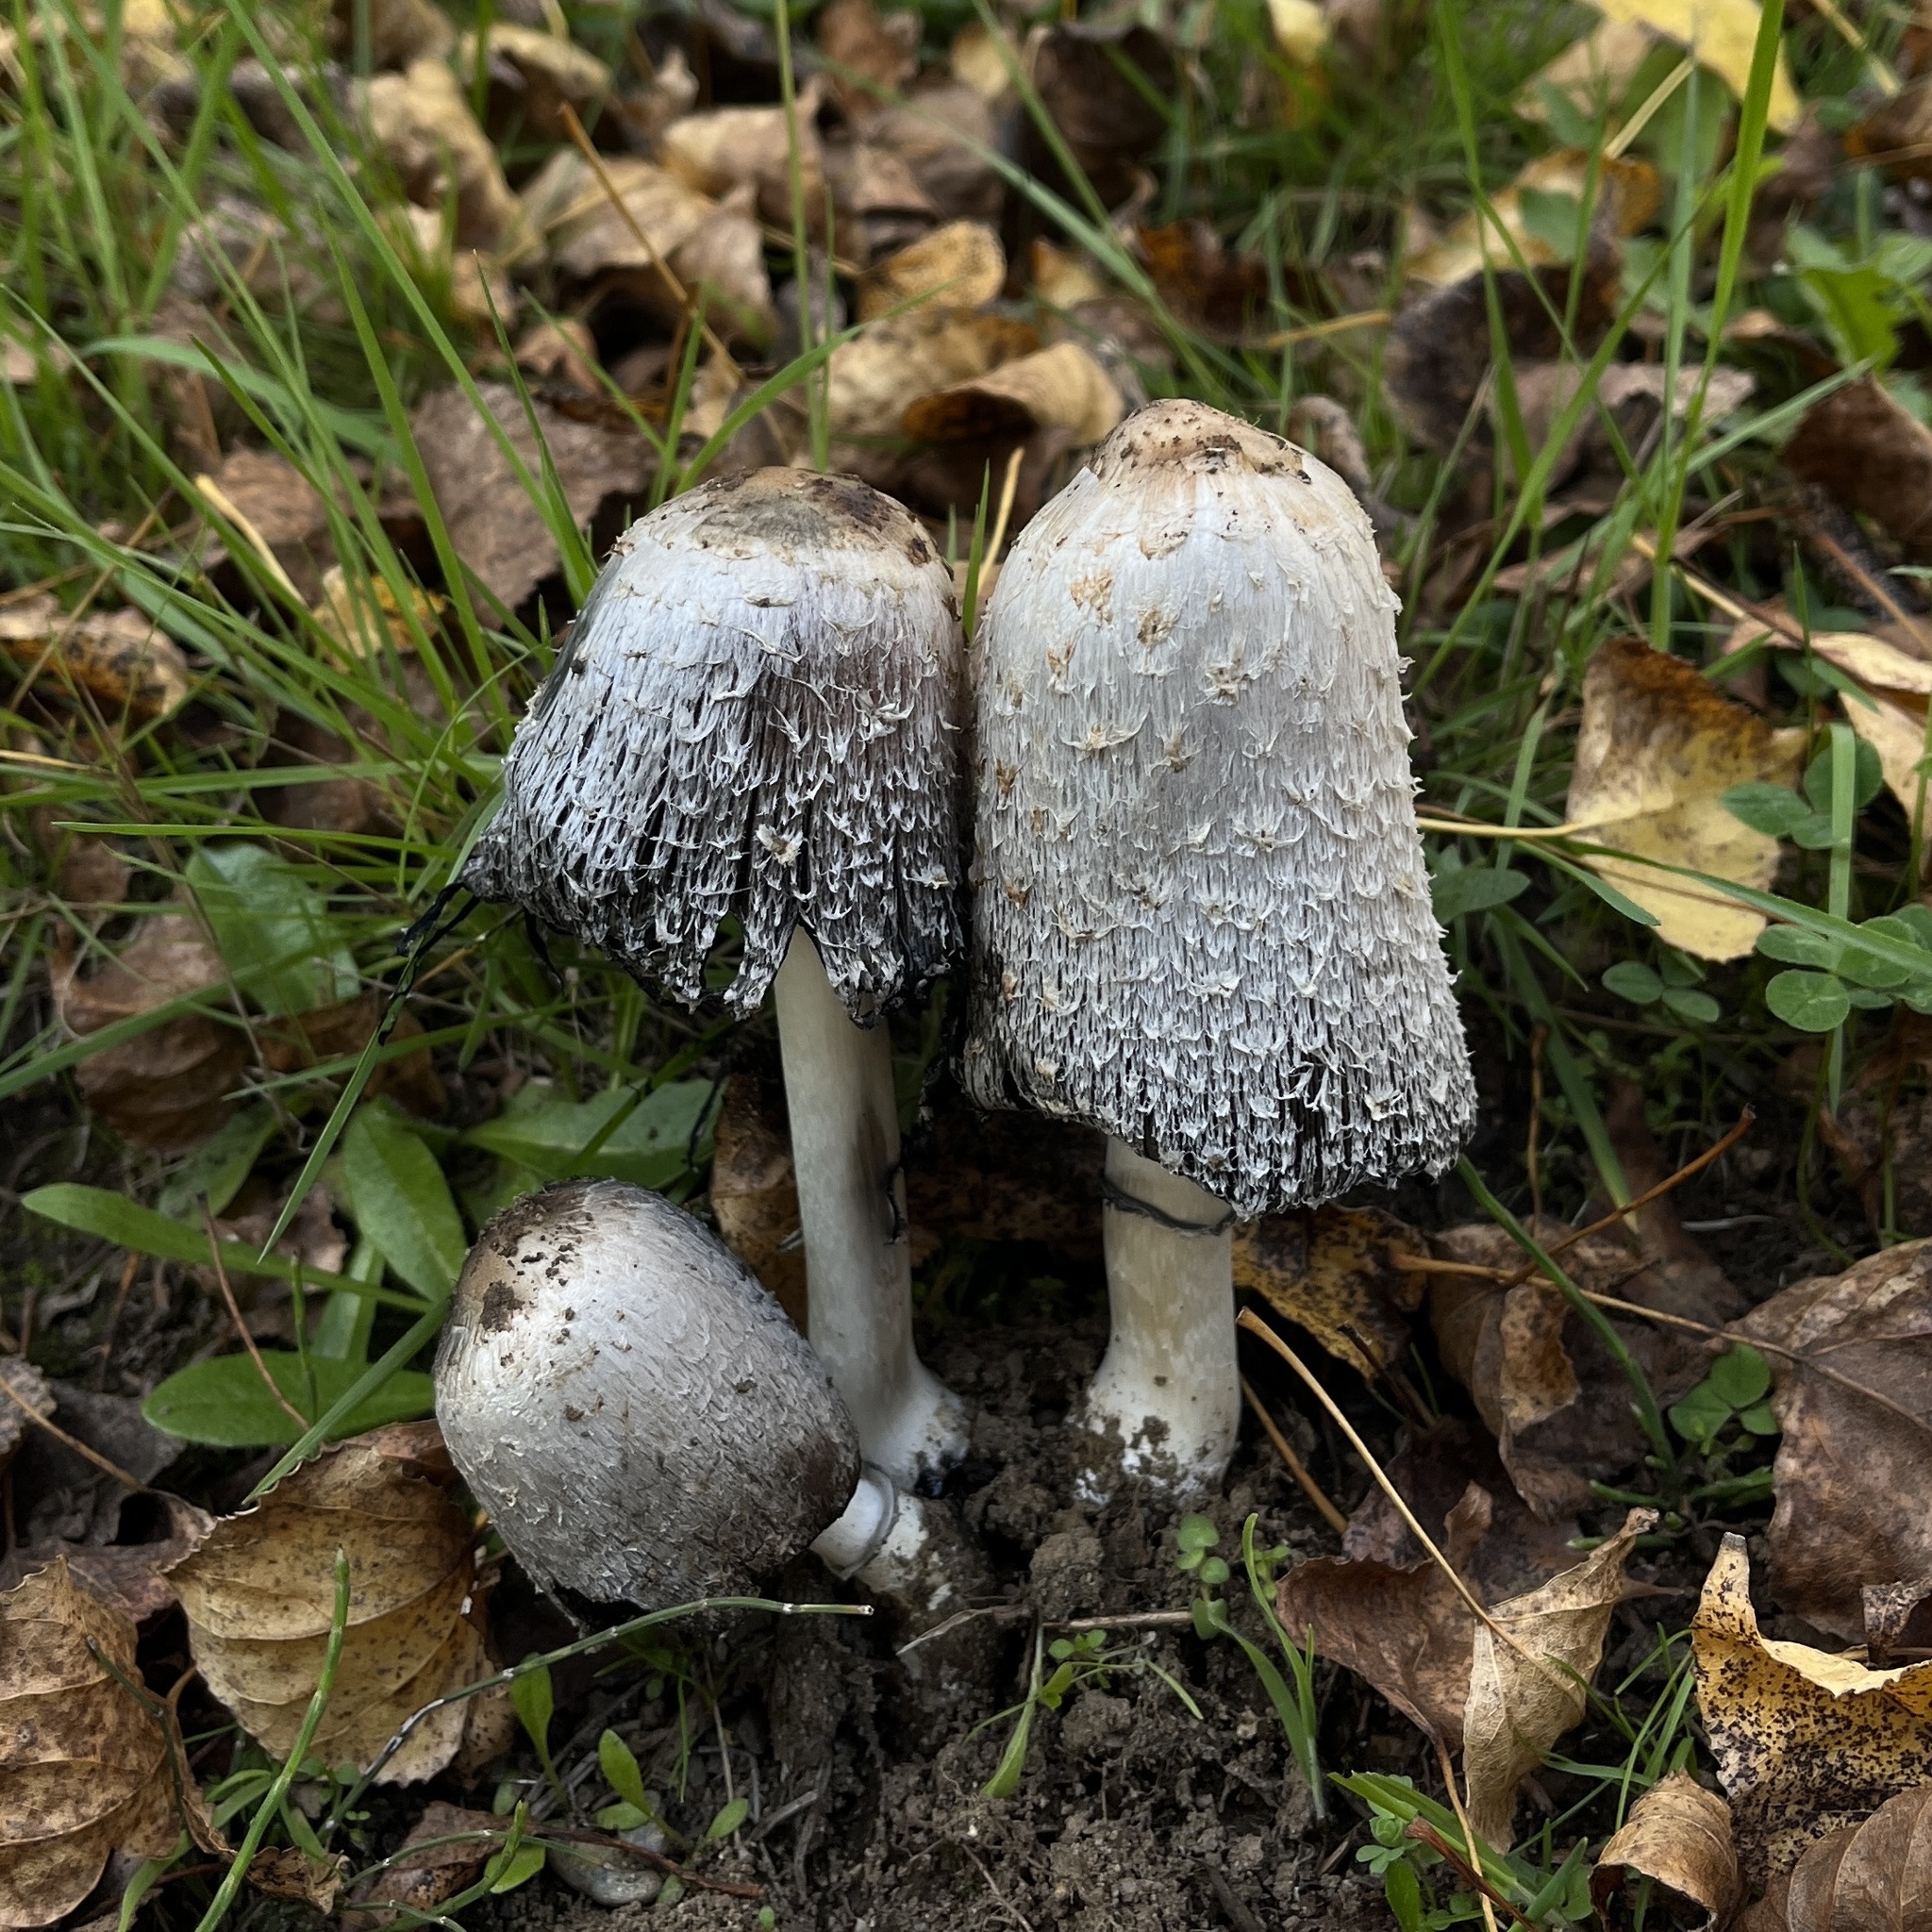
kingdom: Fungi
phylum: Basidiomycota
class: Agaricomycetes
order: Agaricales
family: Agaricaceae
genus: Coprinus
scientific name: Coprinus comatus
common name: Lawyer's wig
